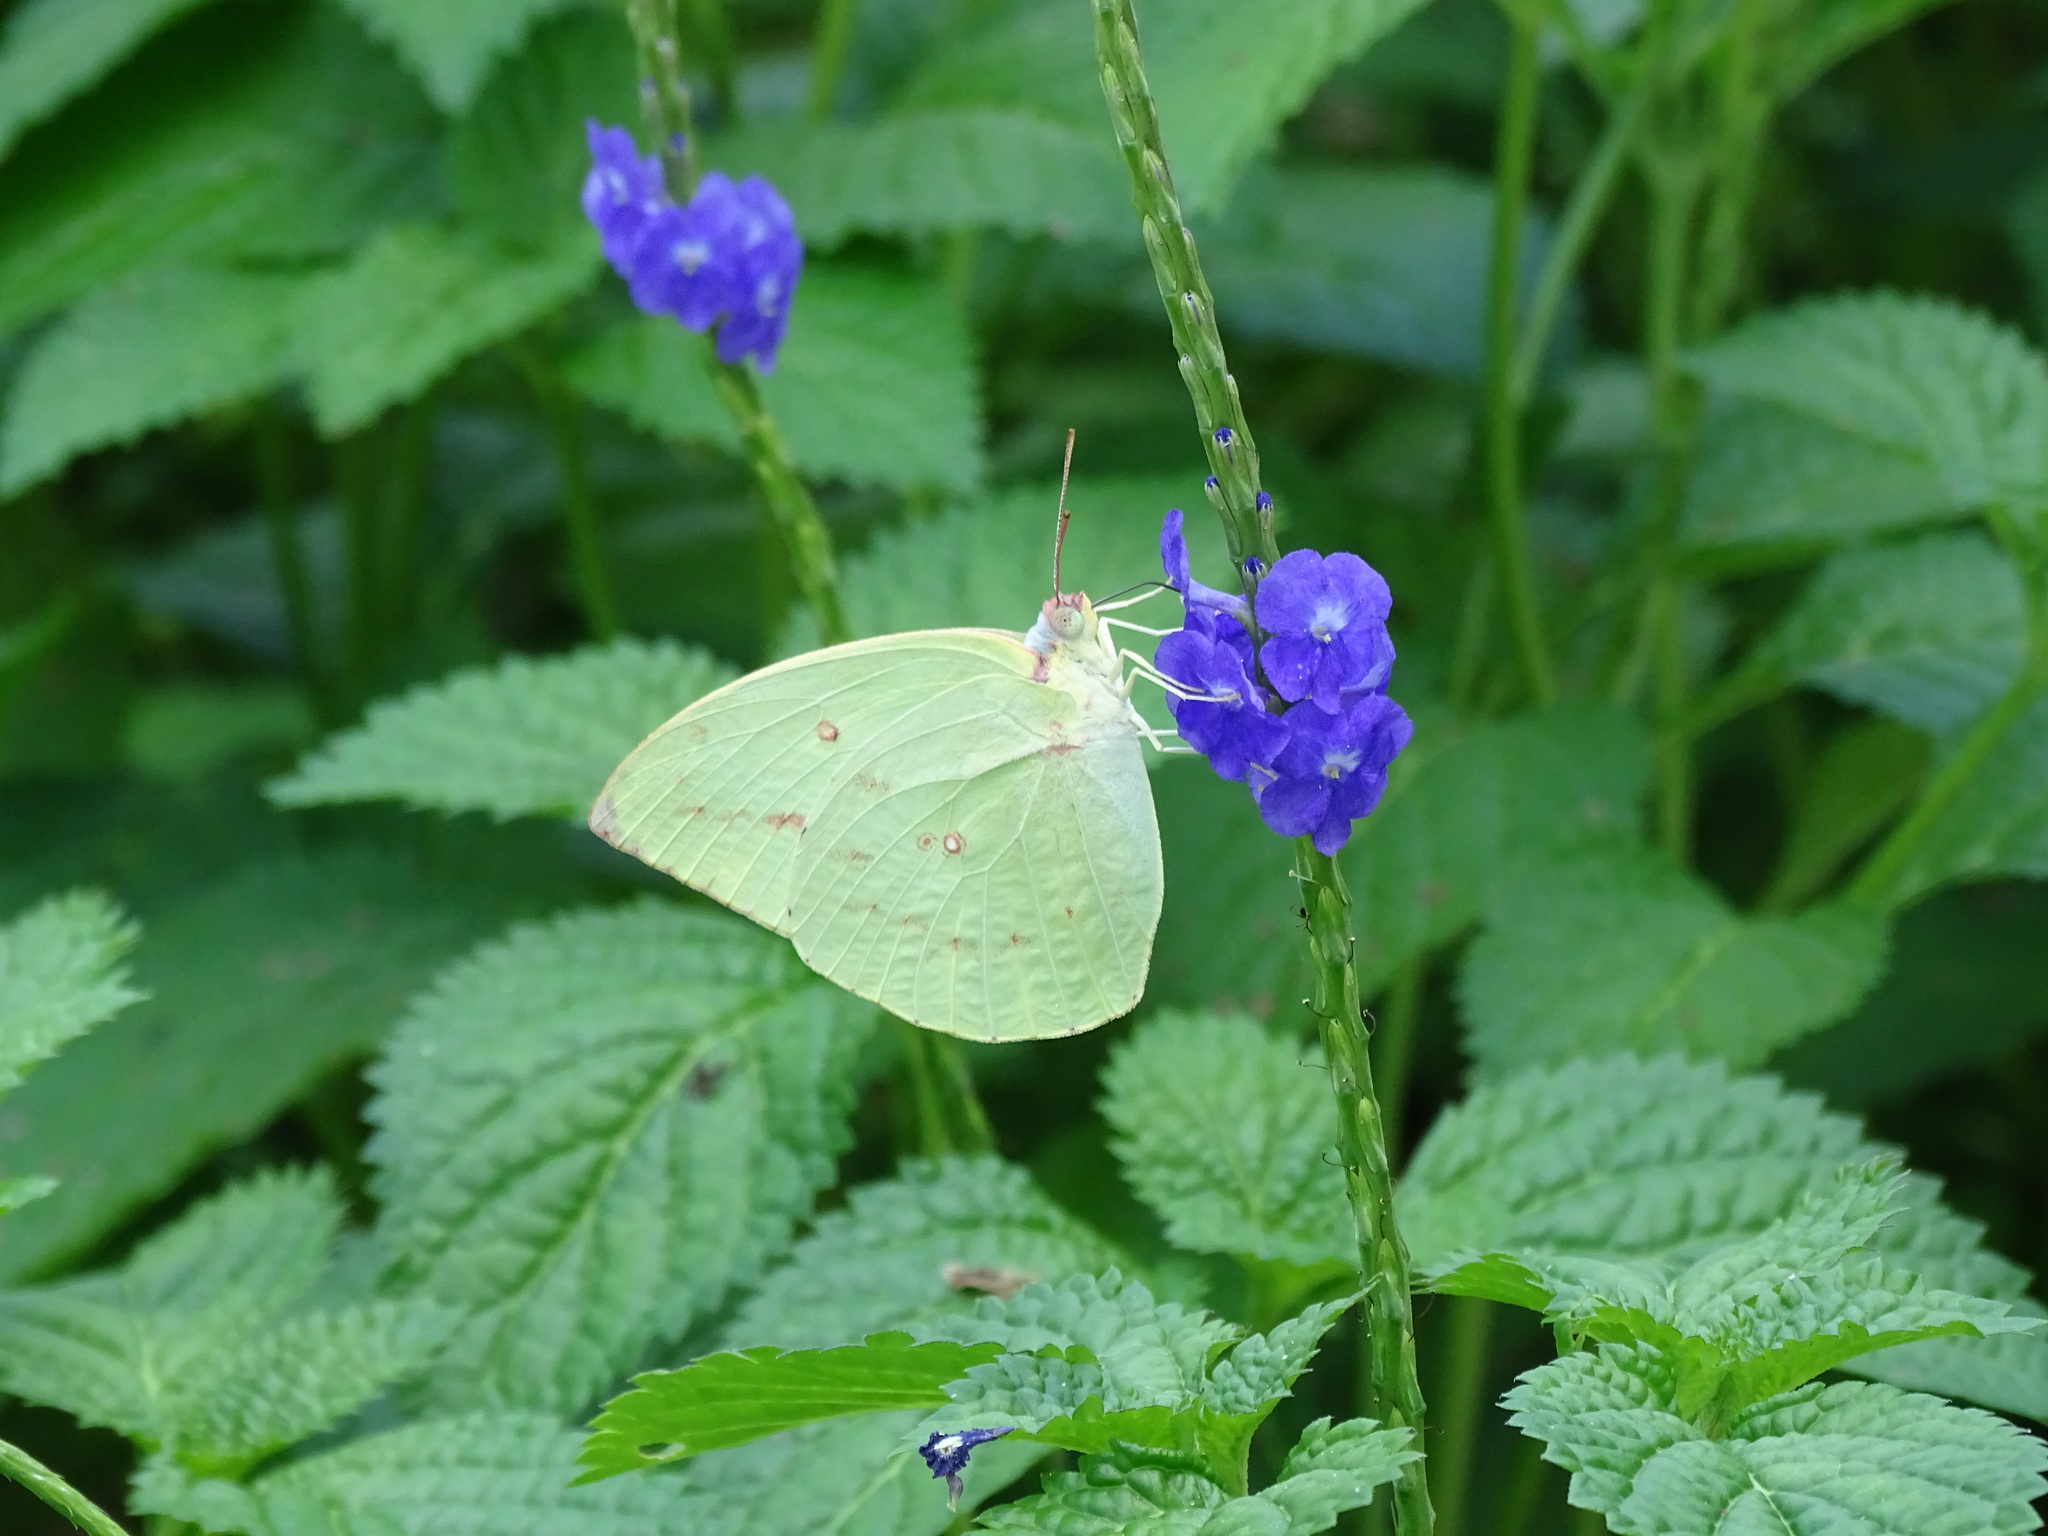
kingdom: Animalia
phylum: Arthropoda
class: Insecta
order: Lepidoptera
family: Pieridae
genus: Catopsilia
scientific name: Catopsilia pomona
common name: Common emigrant
